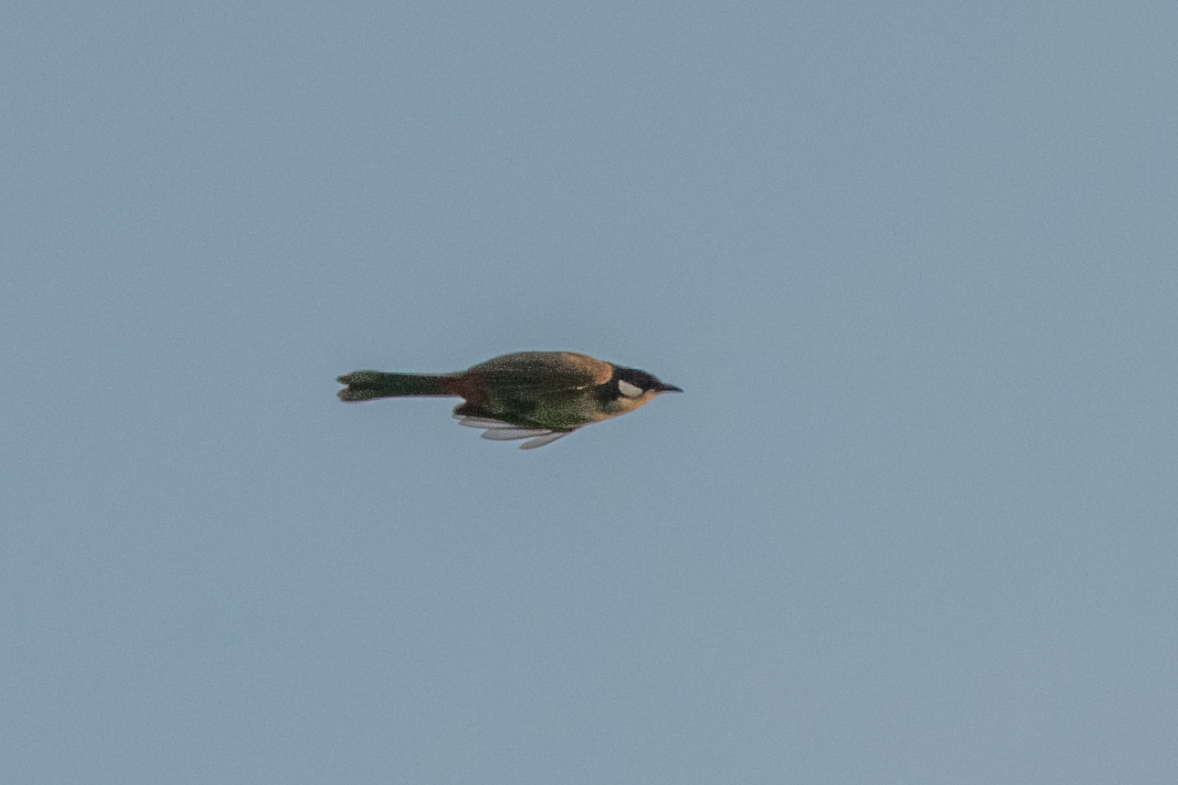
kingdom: Animalia
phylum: Chordata
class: Aves
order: Passeriformes
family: Pycnonotidae
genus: Pycnonotus
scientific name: Pycnonotus jocosus
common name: Red-whiskered bulbul
